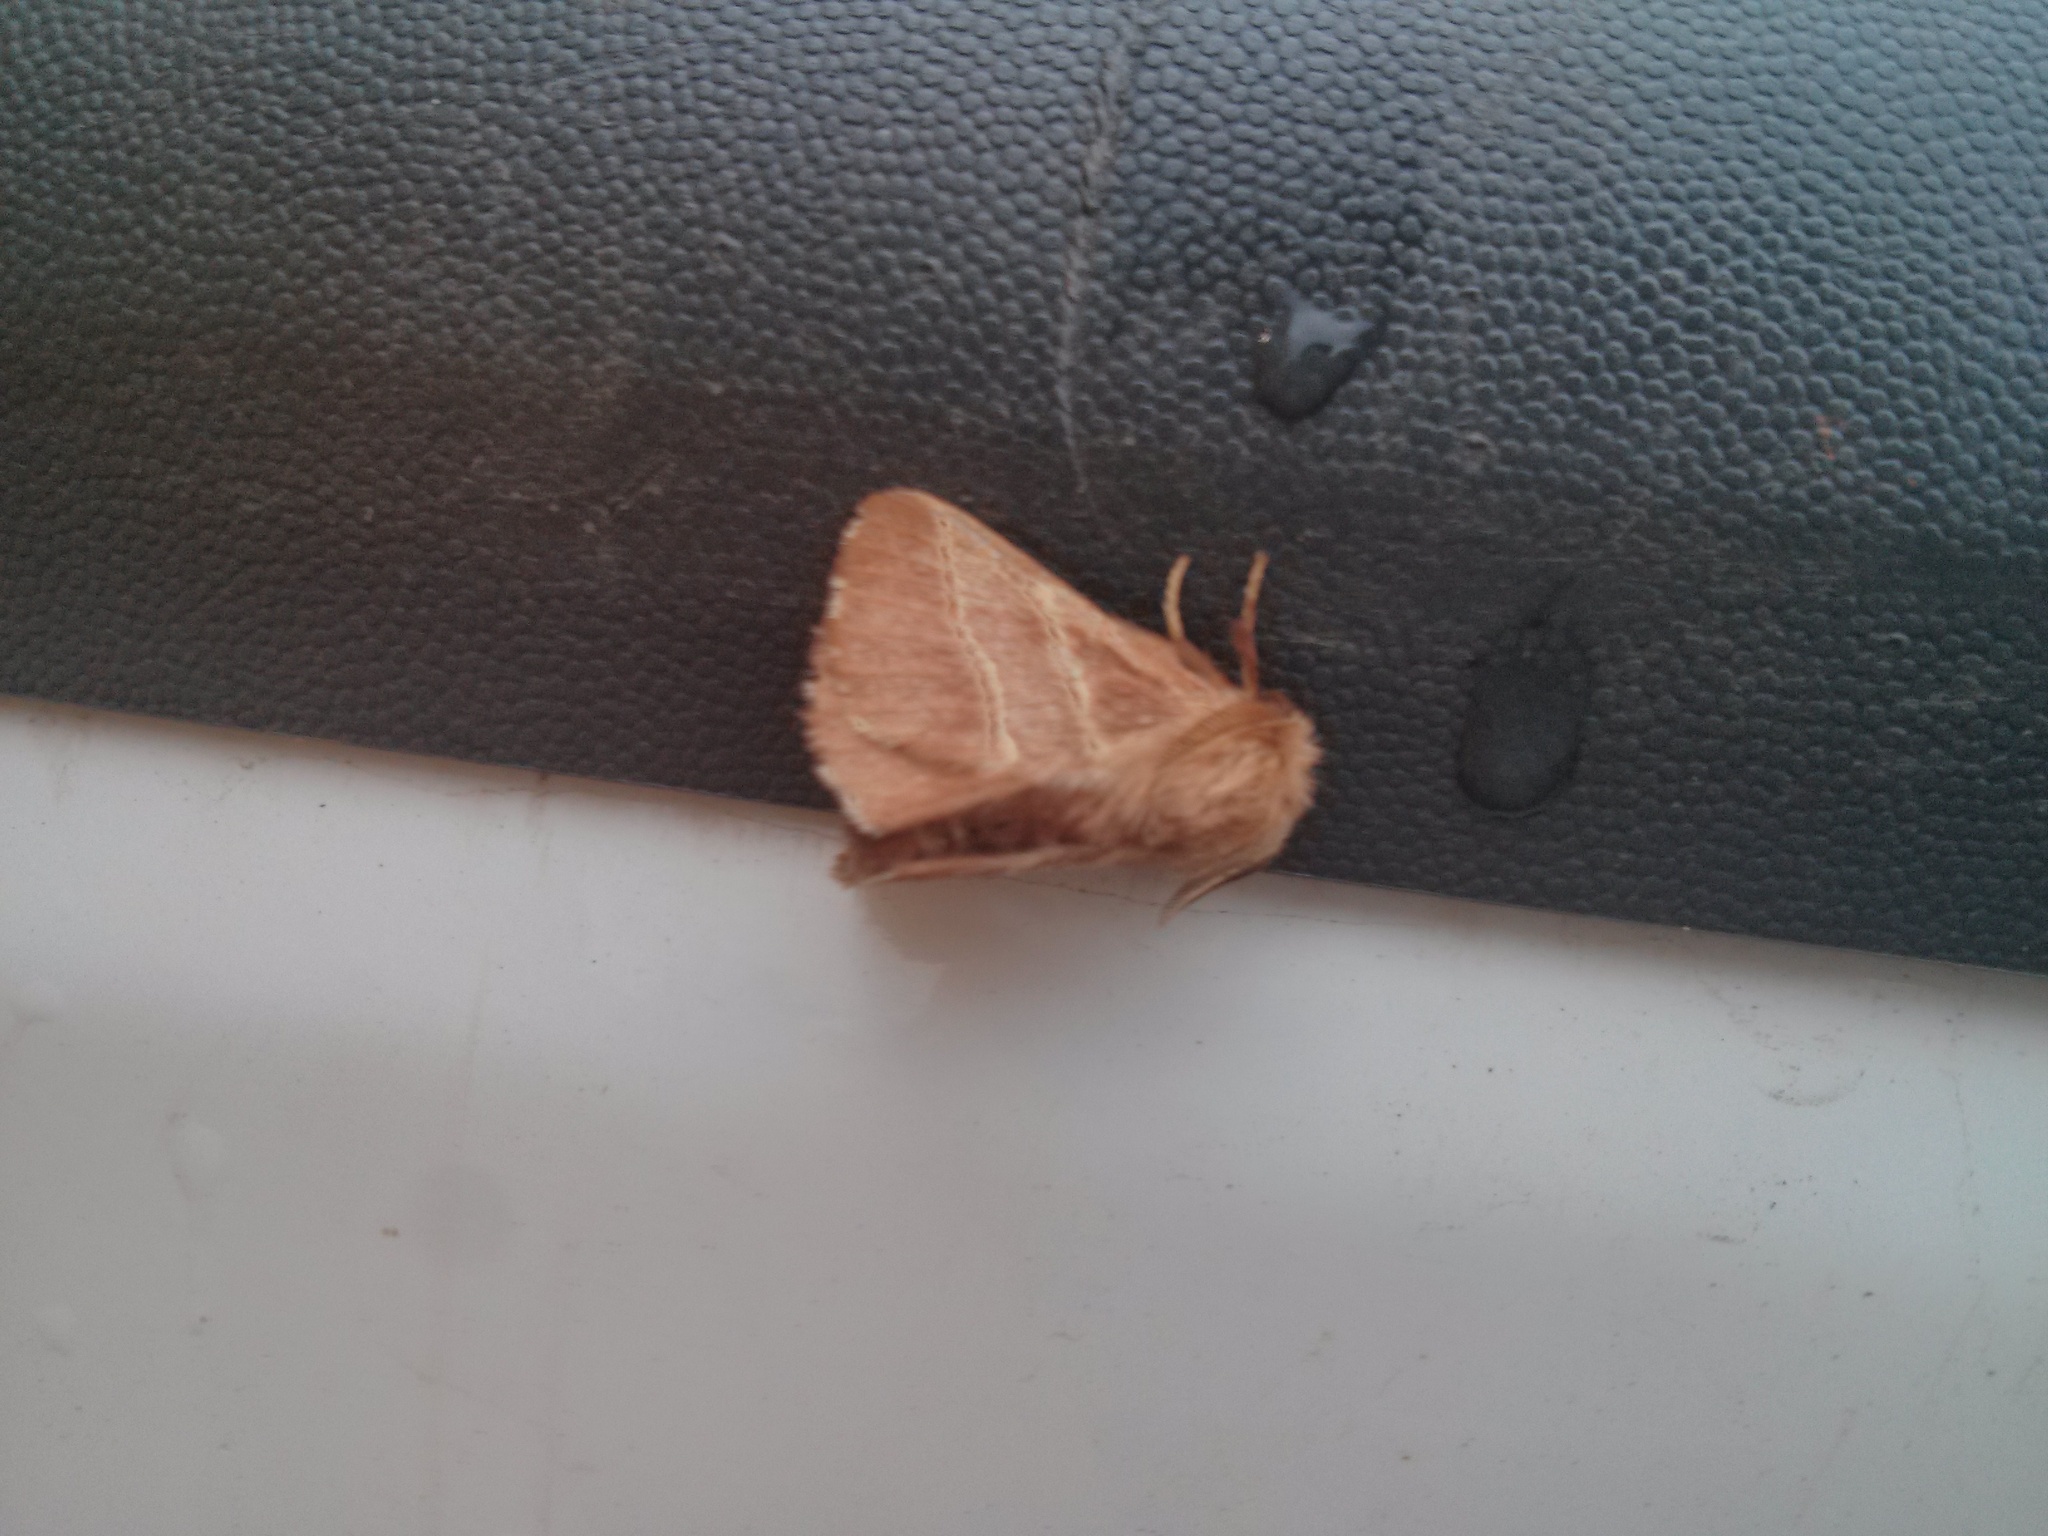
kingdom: Animalia
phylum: Arthropoda
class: Insecta
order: Lepidoptera
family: Lasiocampidae
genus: Malacosoma
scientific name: Malacosoma americana
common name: Eastern tent caterpillar moth
